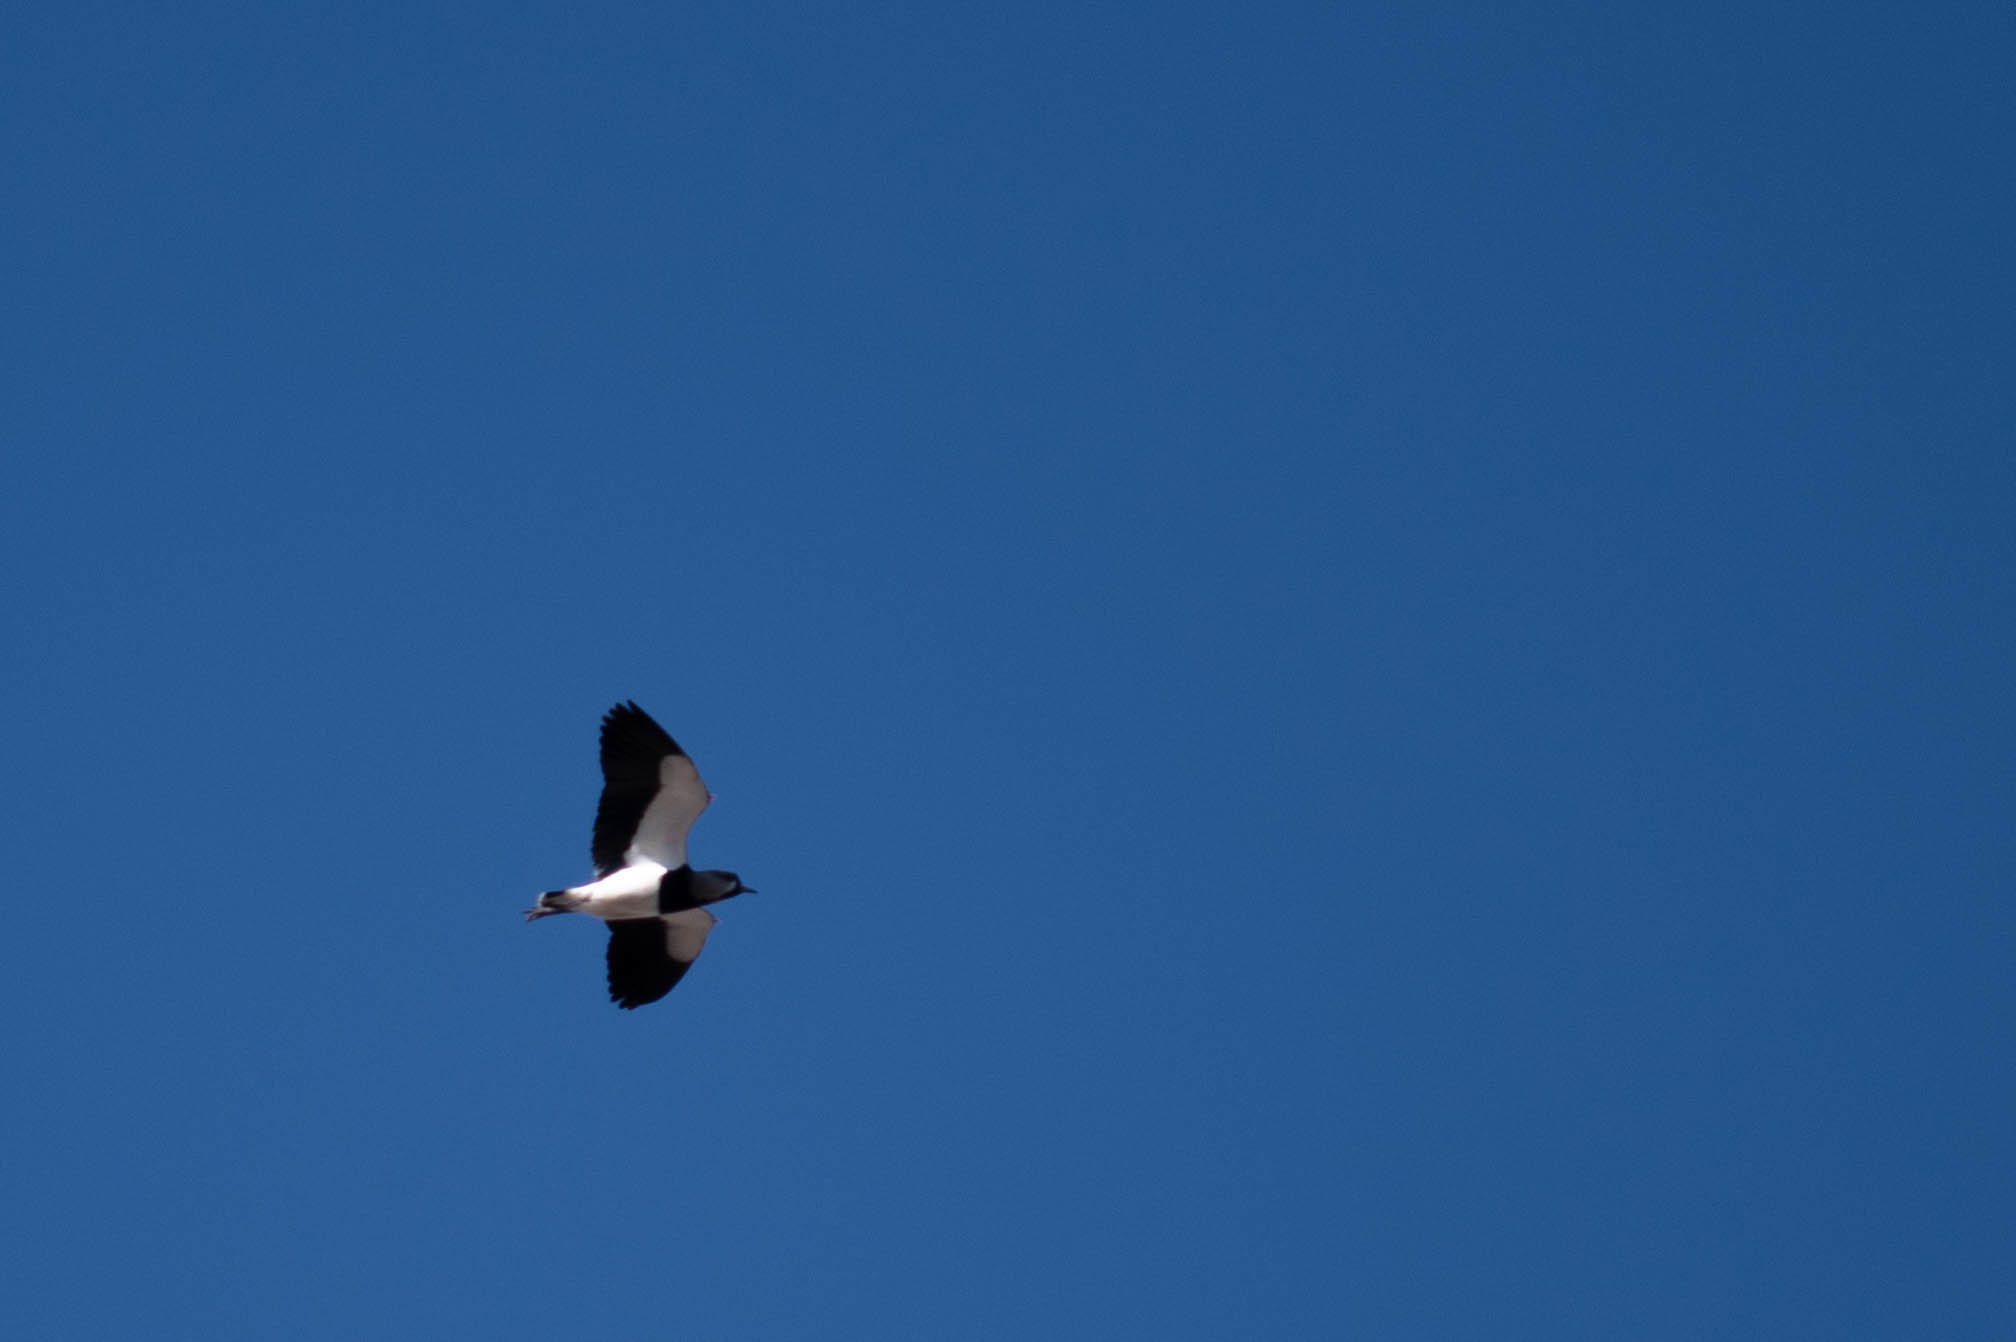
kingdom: Animalia
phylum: Chordata
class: Aves
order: Charadriiformes
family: Charadriidae
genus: Vanellus
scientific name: Vanellus chilensis
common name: Southern lapwing
